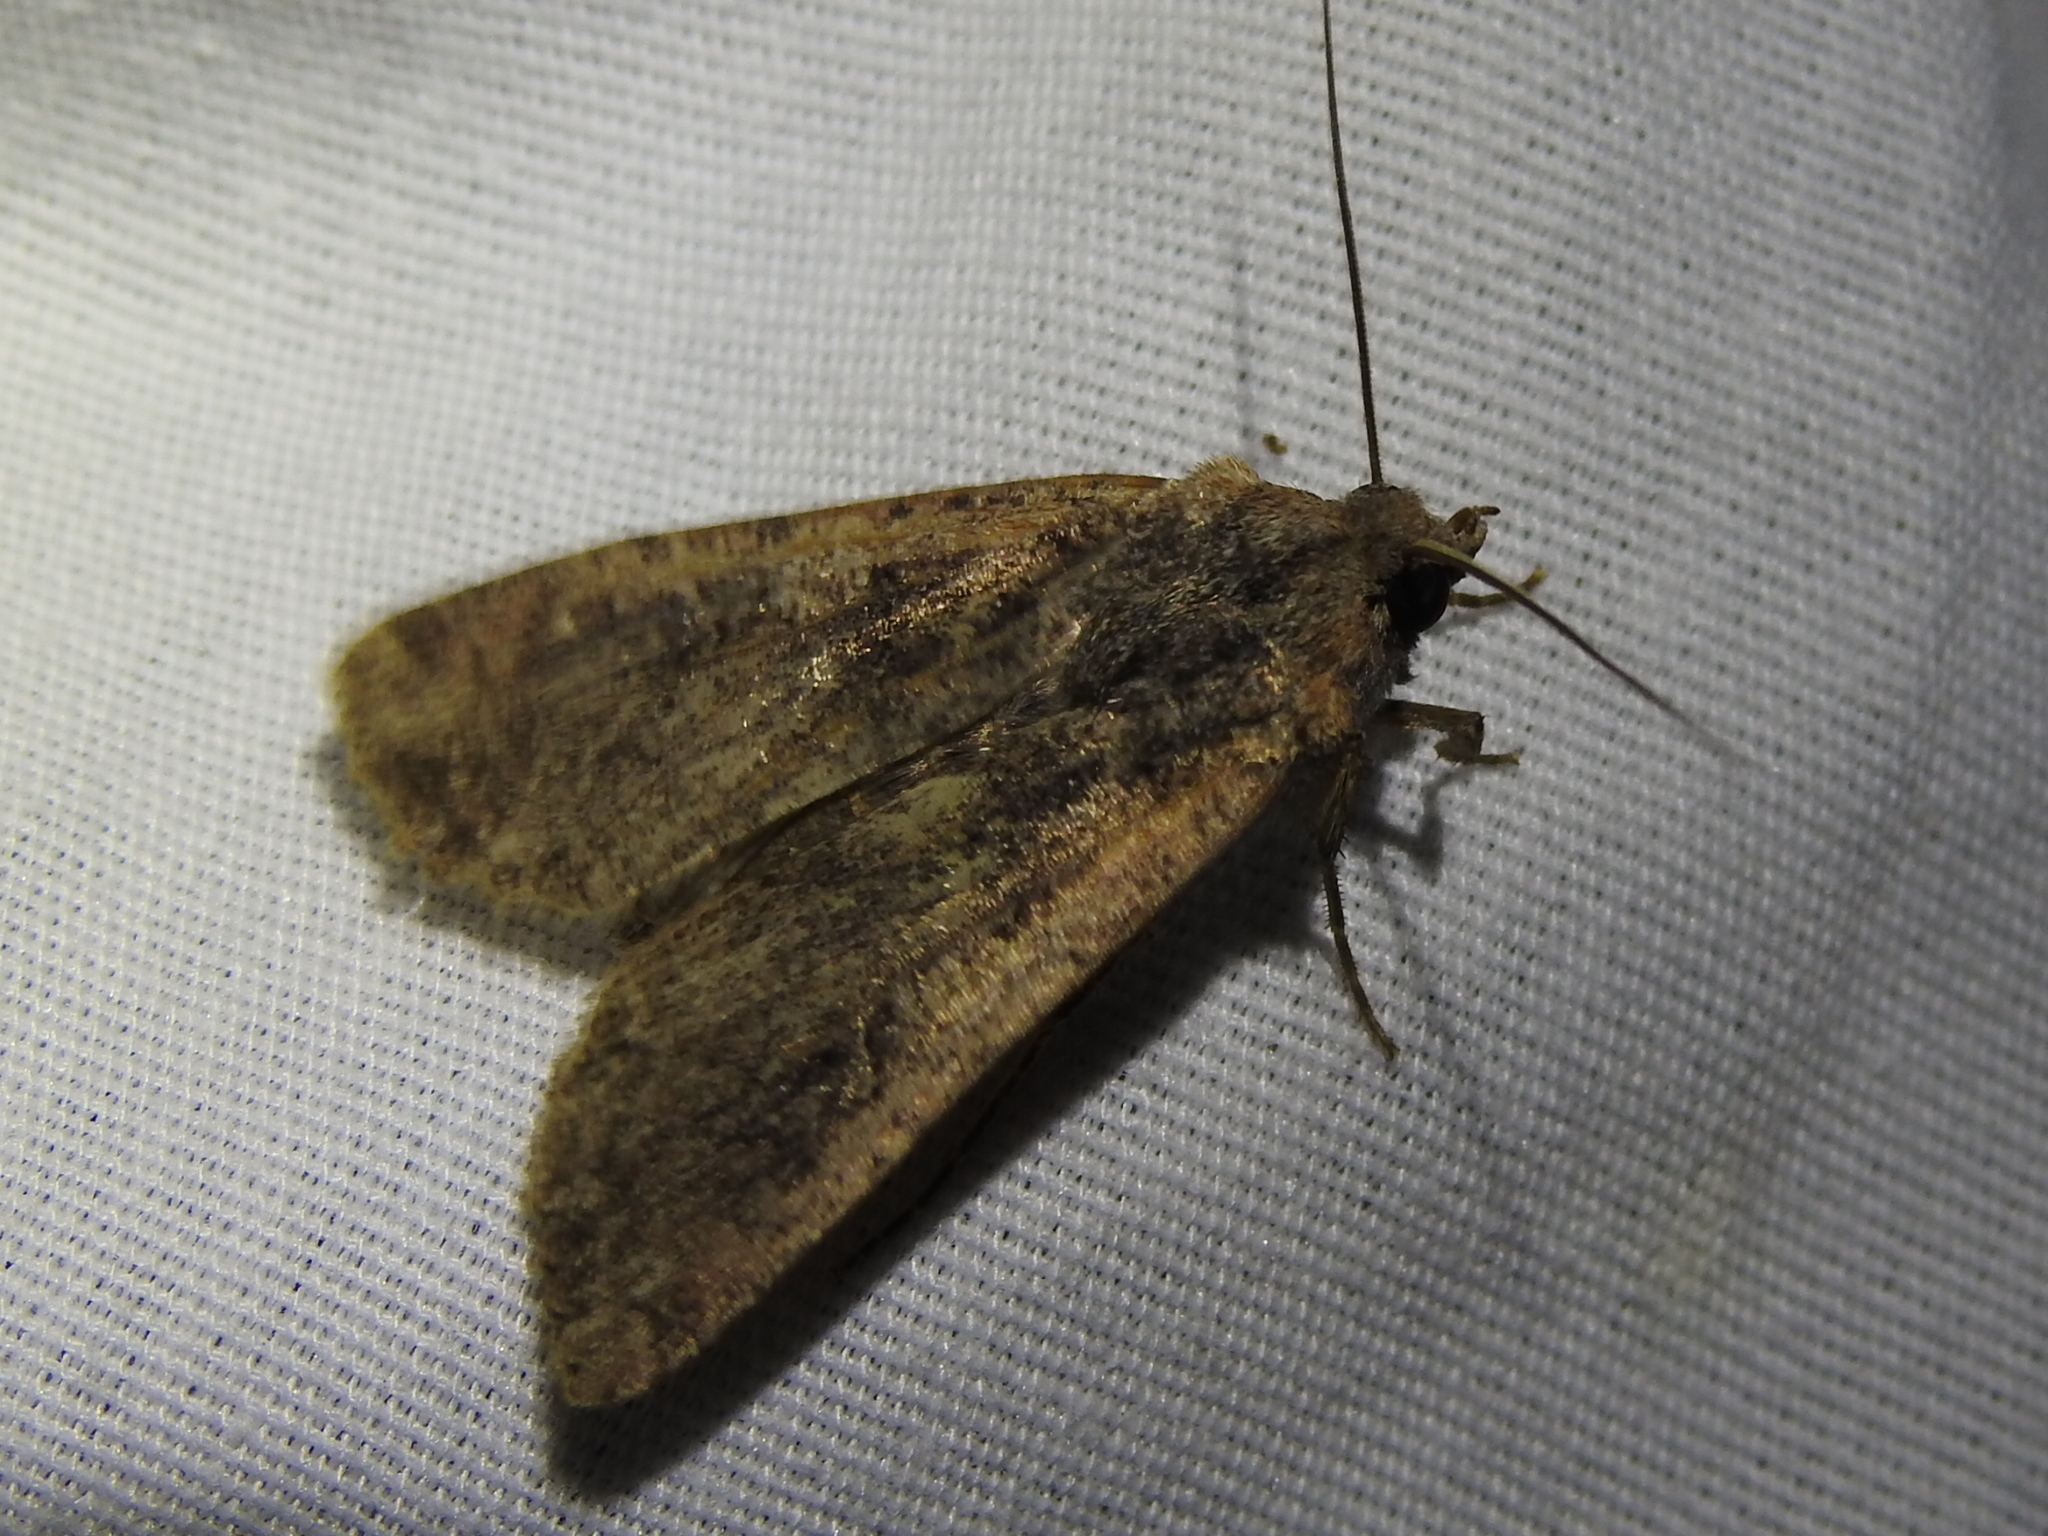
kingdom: Animalia
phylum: Arthropoda
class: Insecta
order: Lepidoptera
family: Noctuidae
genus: Peridroma
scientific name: Peridroma saucia
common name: Pearly underwing
